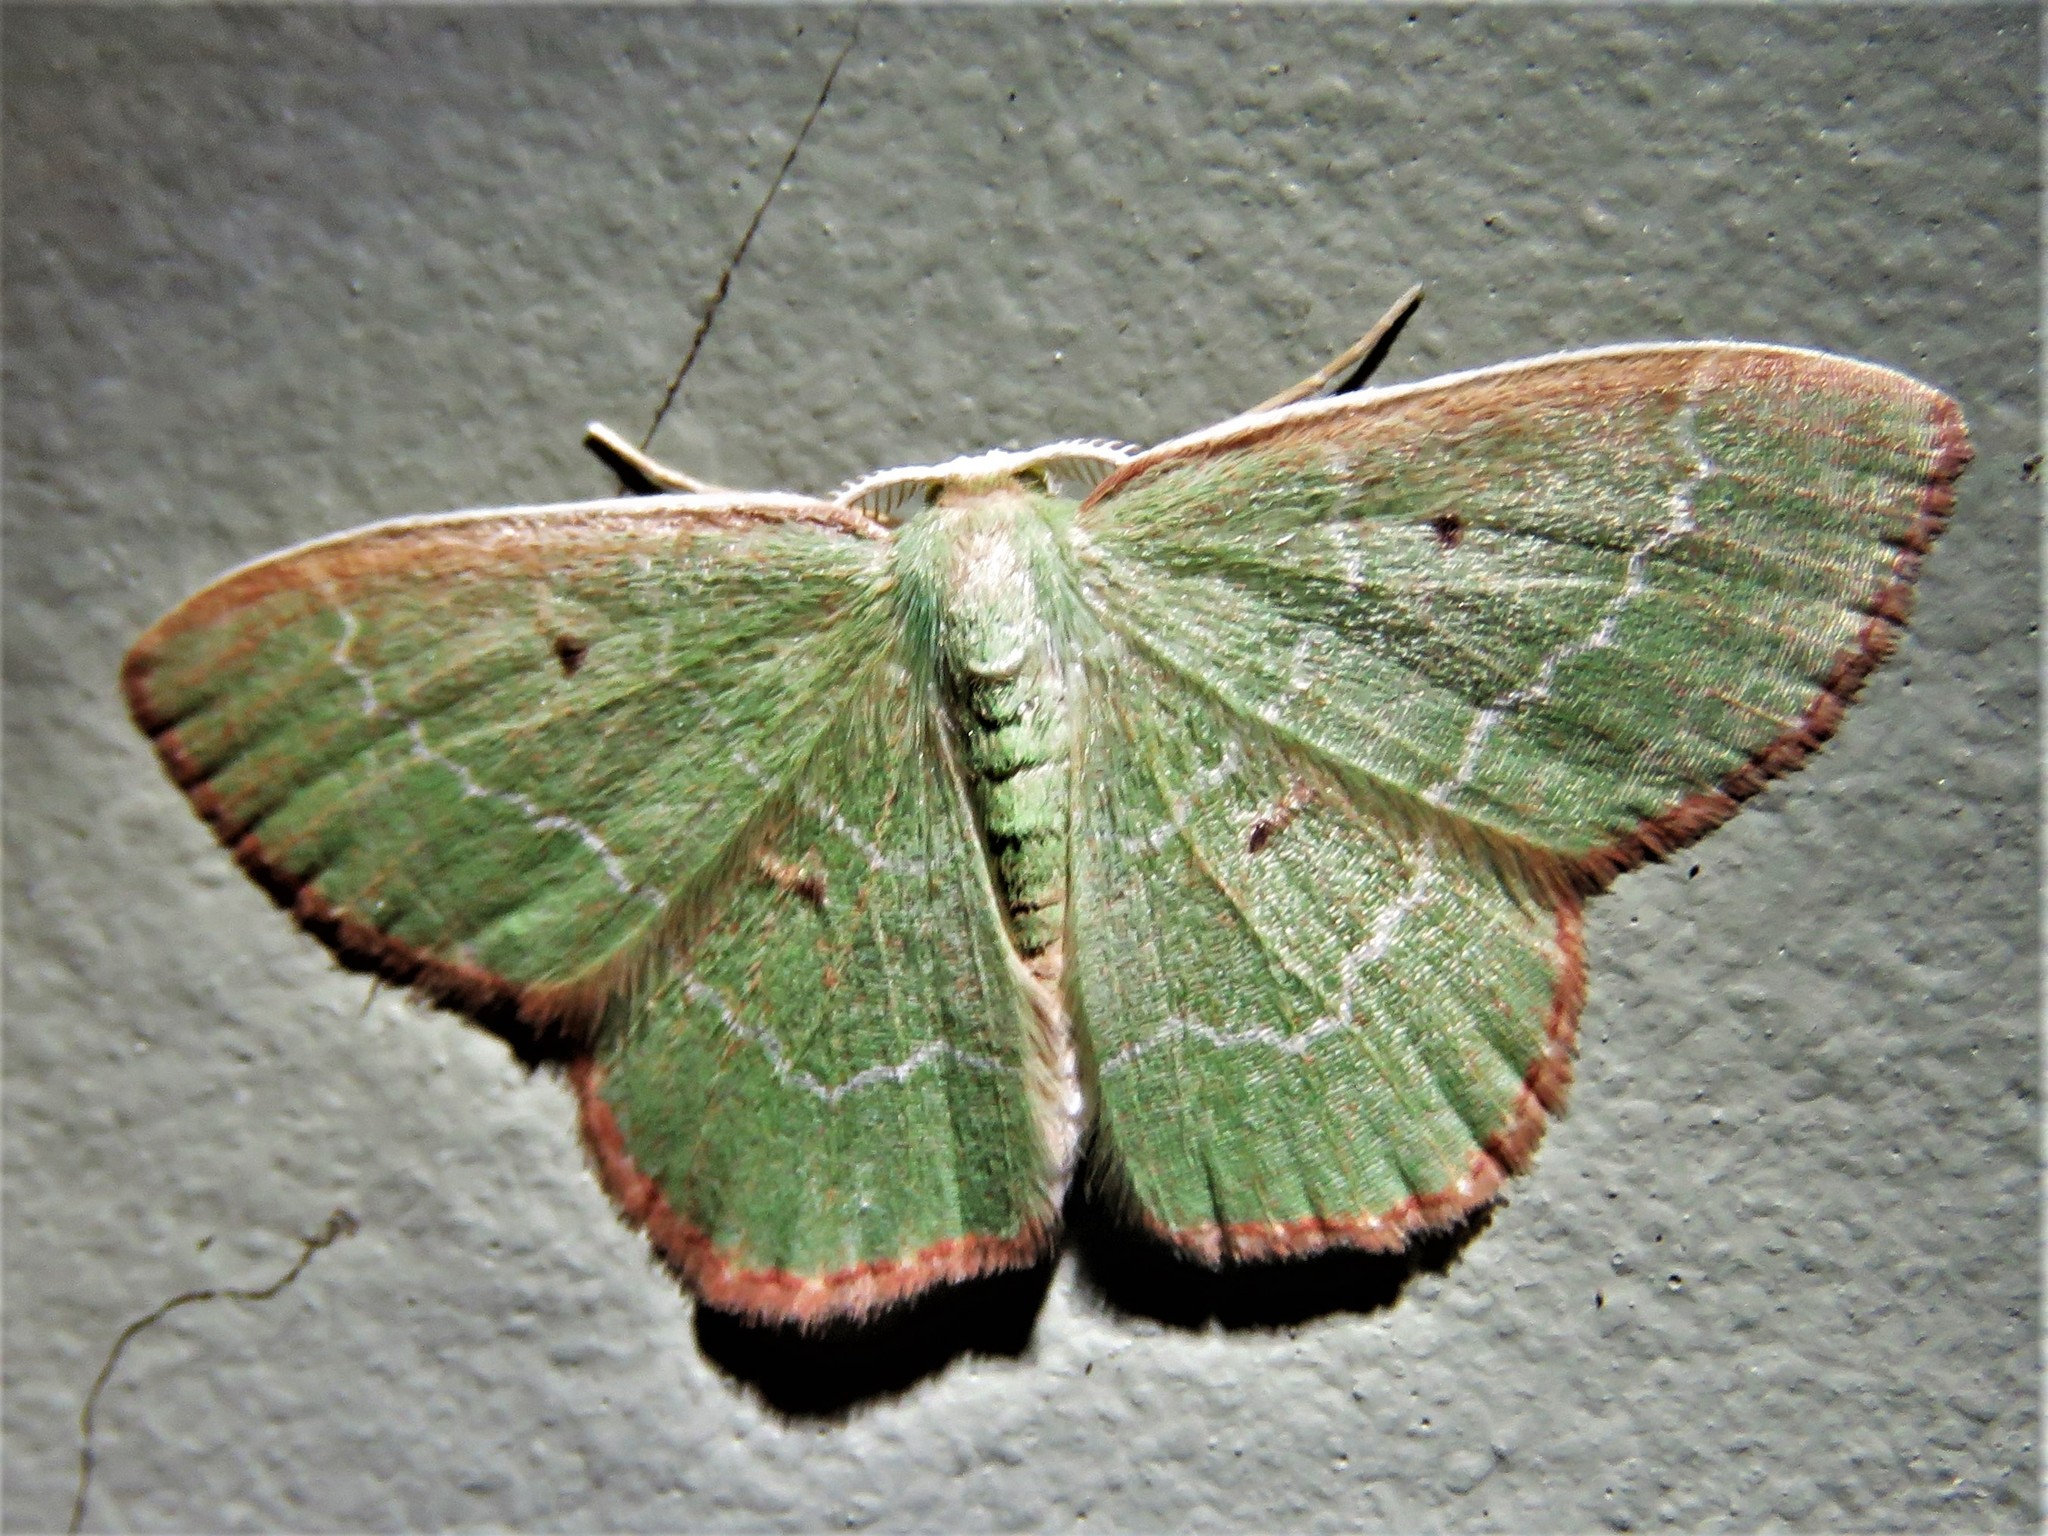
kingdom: Animalia
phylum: Arthropoda
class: Insecta
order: Lepidoptera
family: Geometridae
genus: Nemoria
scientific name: Nemoria elfa
